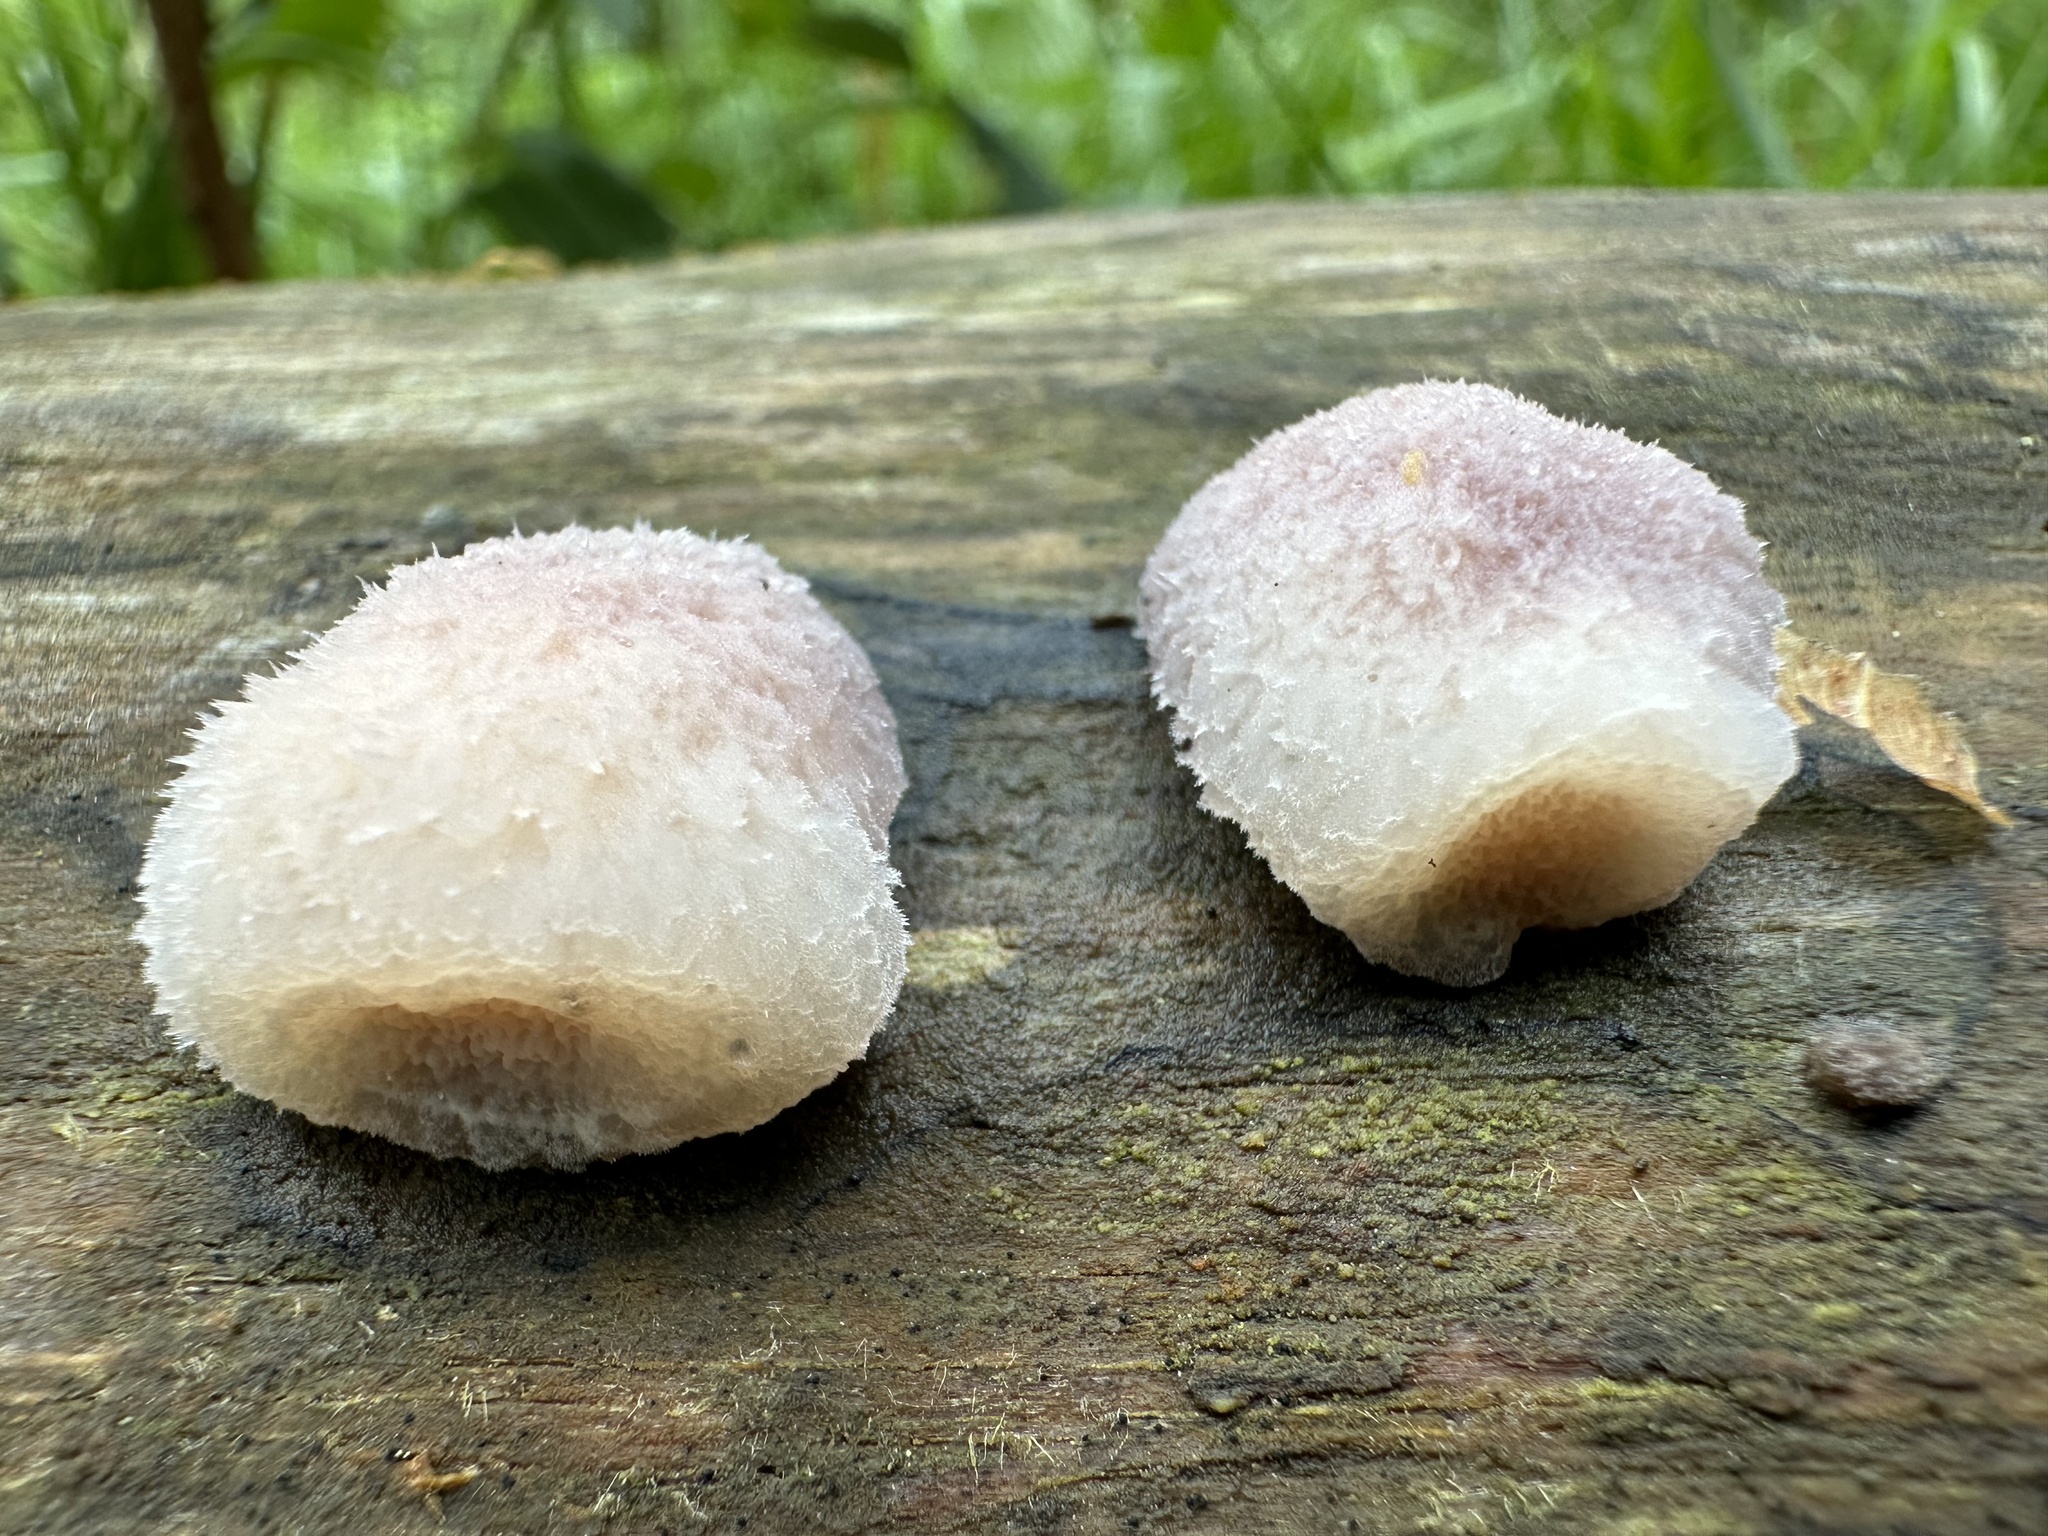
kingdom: Fungi
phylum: Basidiomycota
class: Agaricomycetes
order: Polyporales
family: Meruliaceae
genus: Phlebia
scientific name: Phlebia tremellosa
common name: Jelly rot
